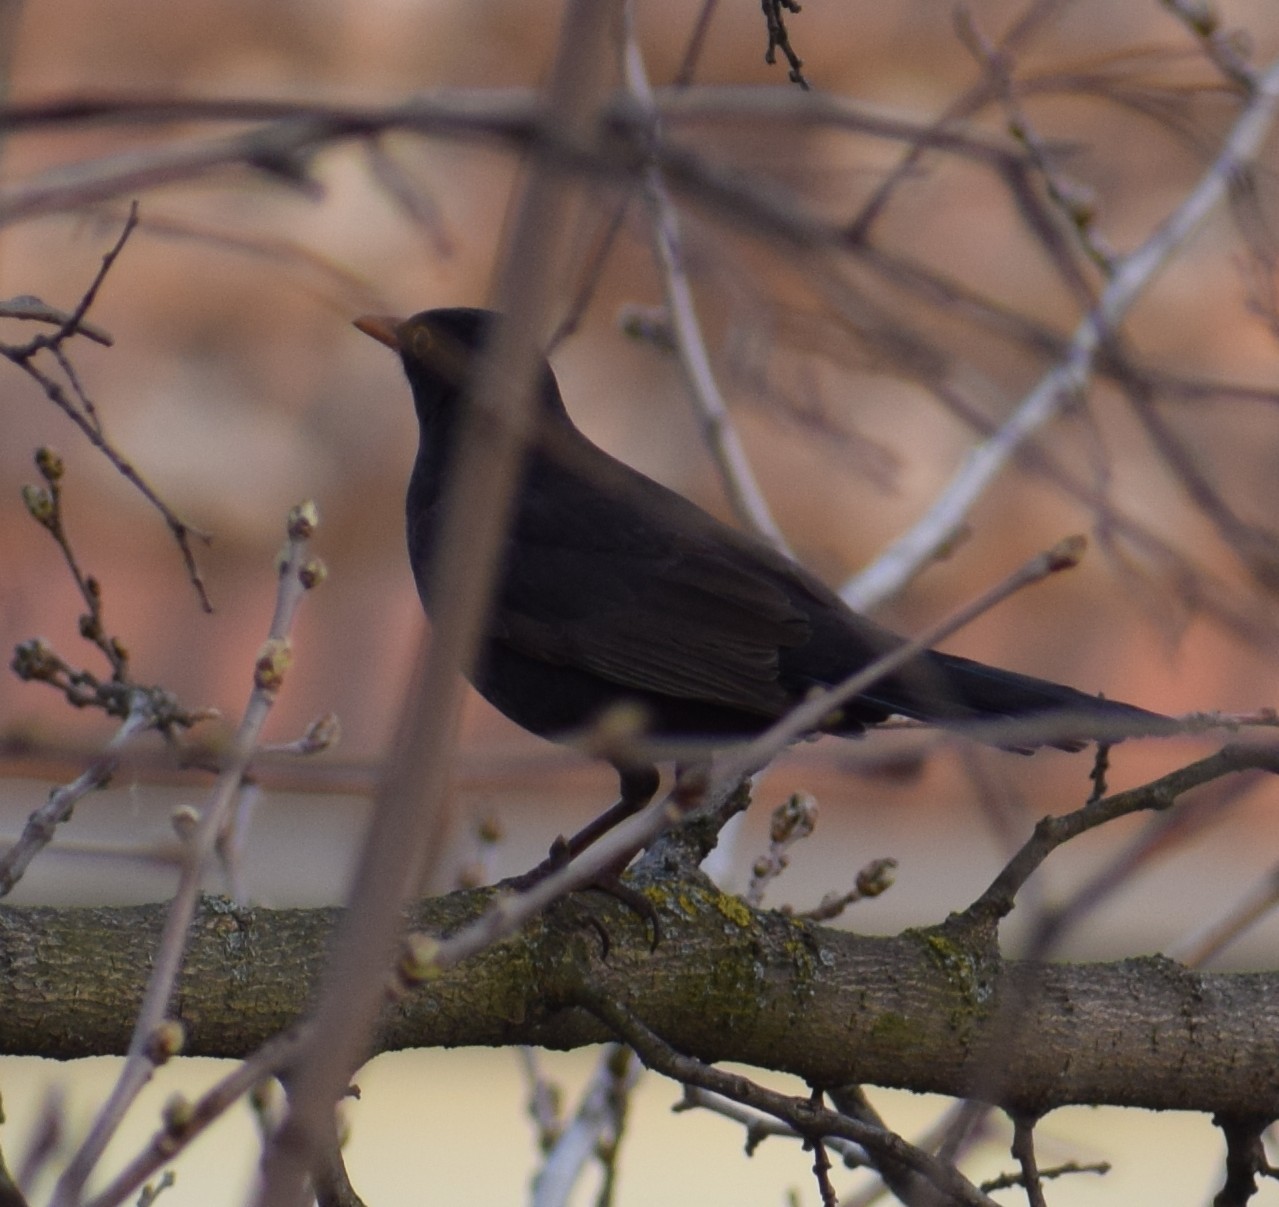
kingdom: Animalia
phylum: Chordata
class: Aves
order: Passeriformes
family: Turdidae
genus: Turdus
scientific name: Turdus merula
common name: Common blackbird
